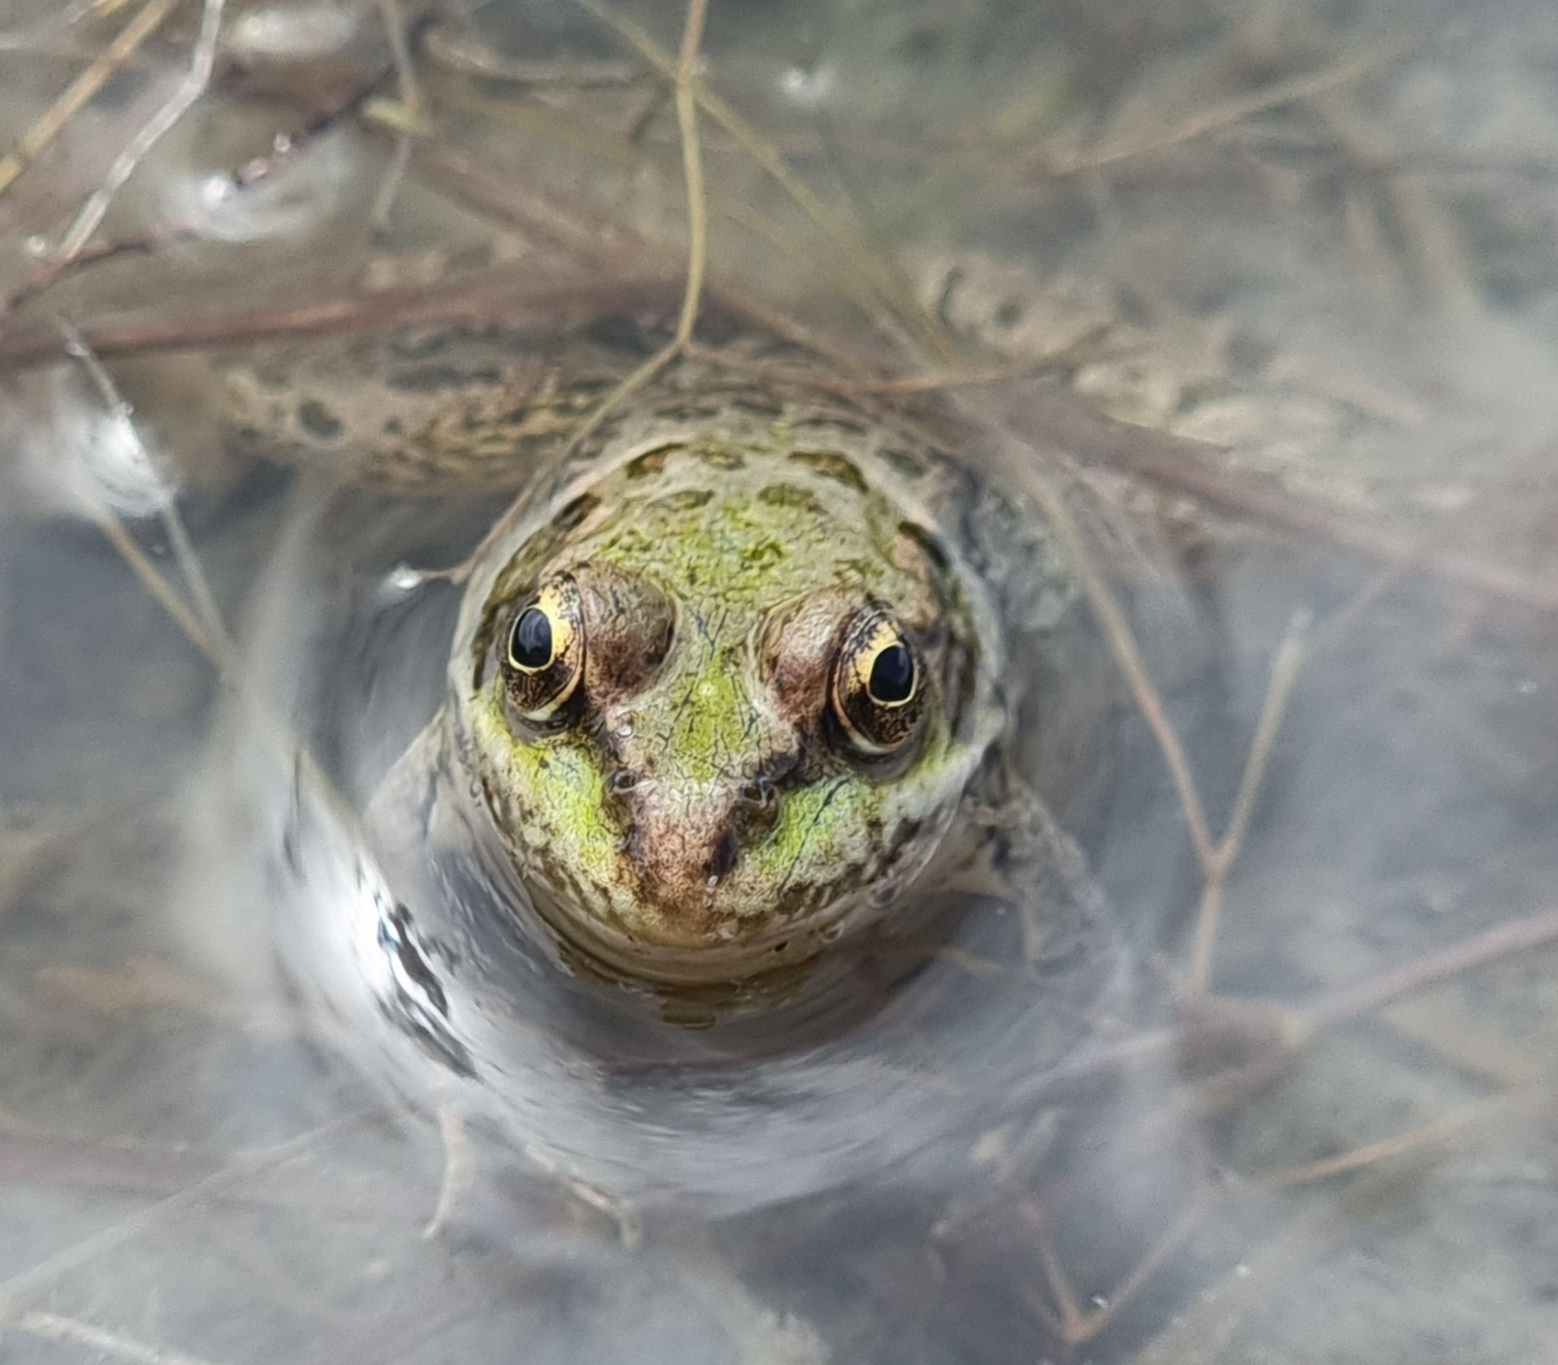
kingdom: Animalia
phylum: Chordata
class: Amphibia
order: Anura
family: Ranidae
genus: Pelophylax
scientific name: Pelophylax ridibundus
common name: Marsh frog
